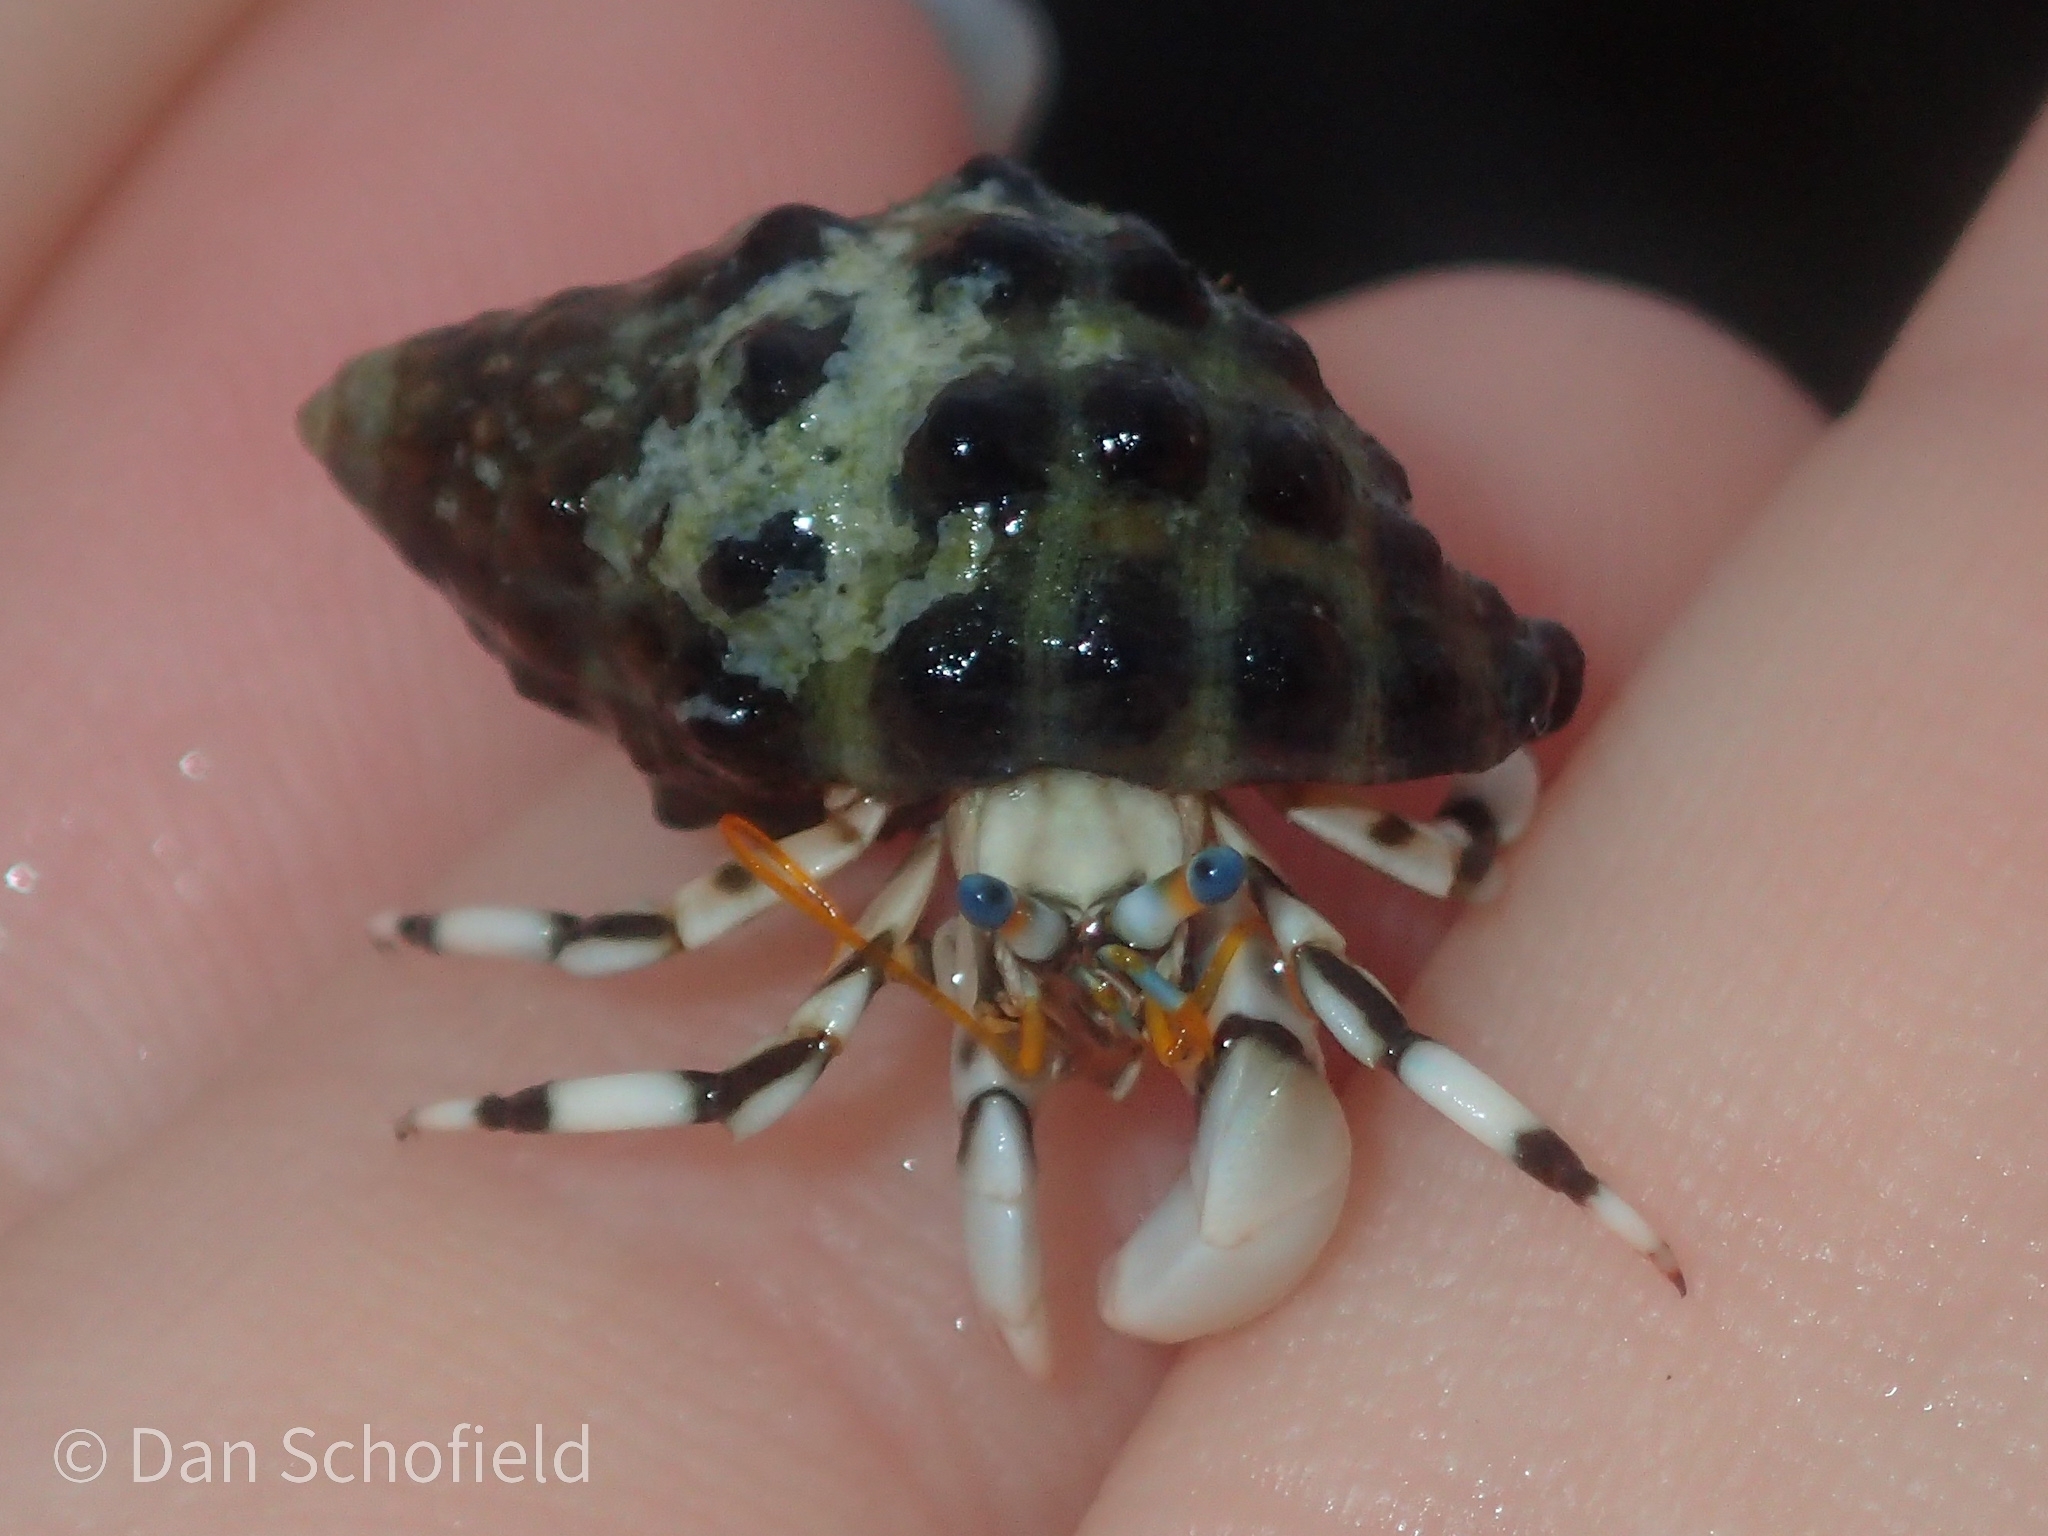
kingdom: Animalia
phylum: Arthropoda
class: Malacostraca
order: Decapoda
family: Diogenidae
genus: Calcinus
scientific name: Calcinus seurati
